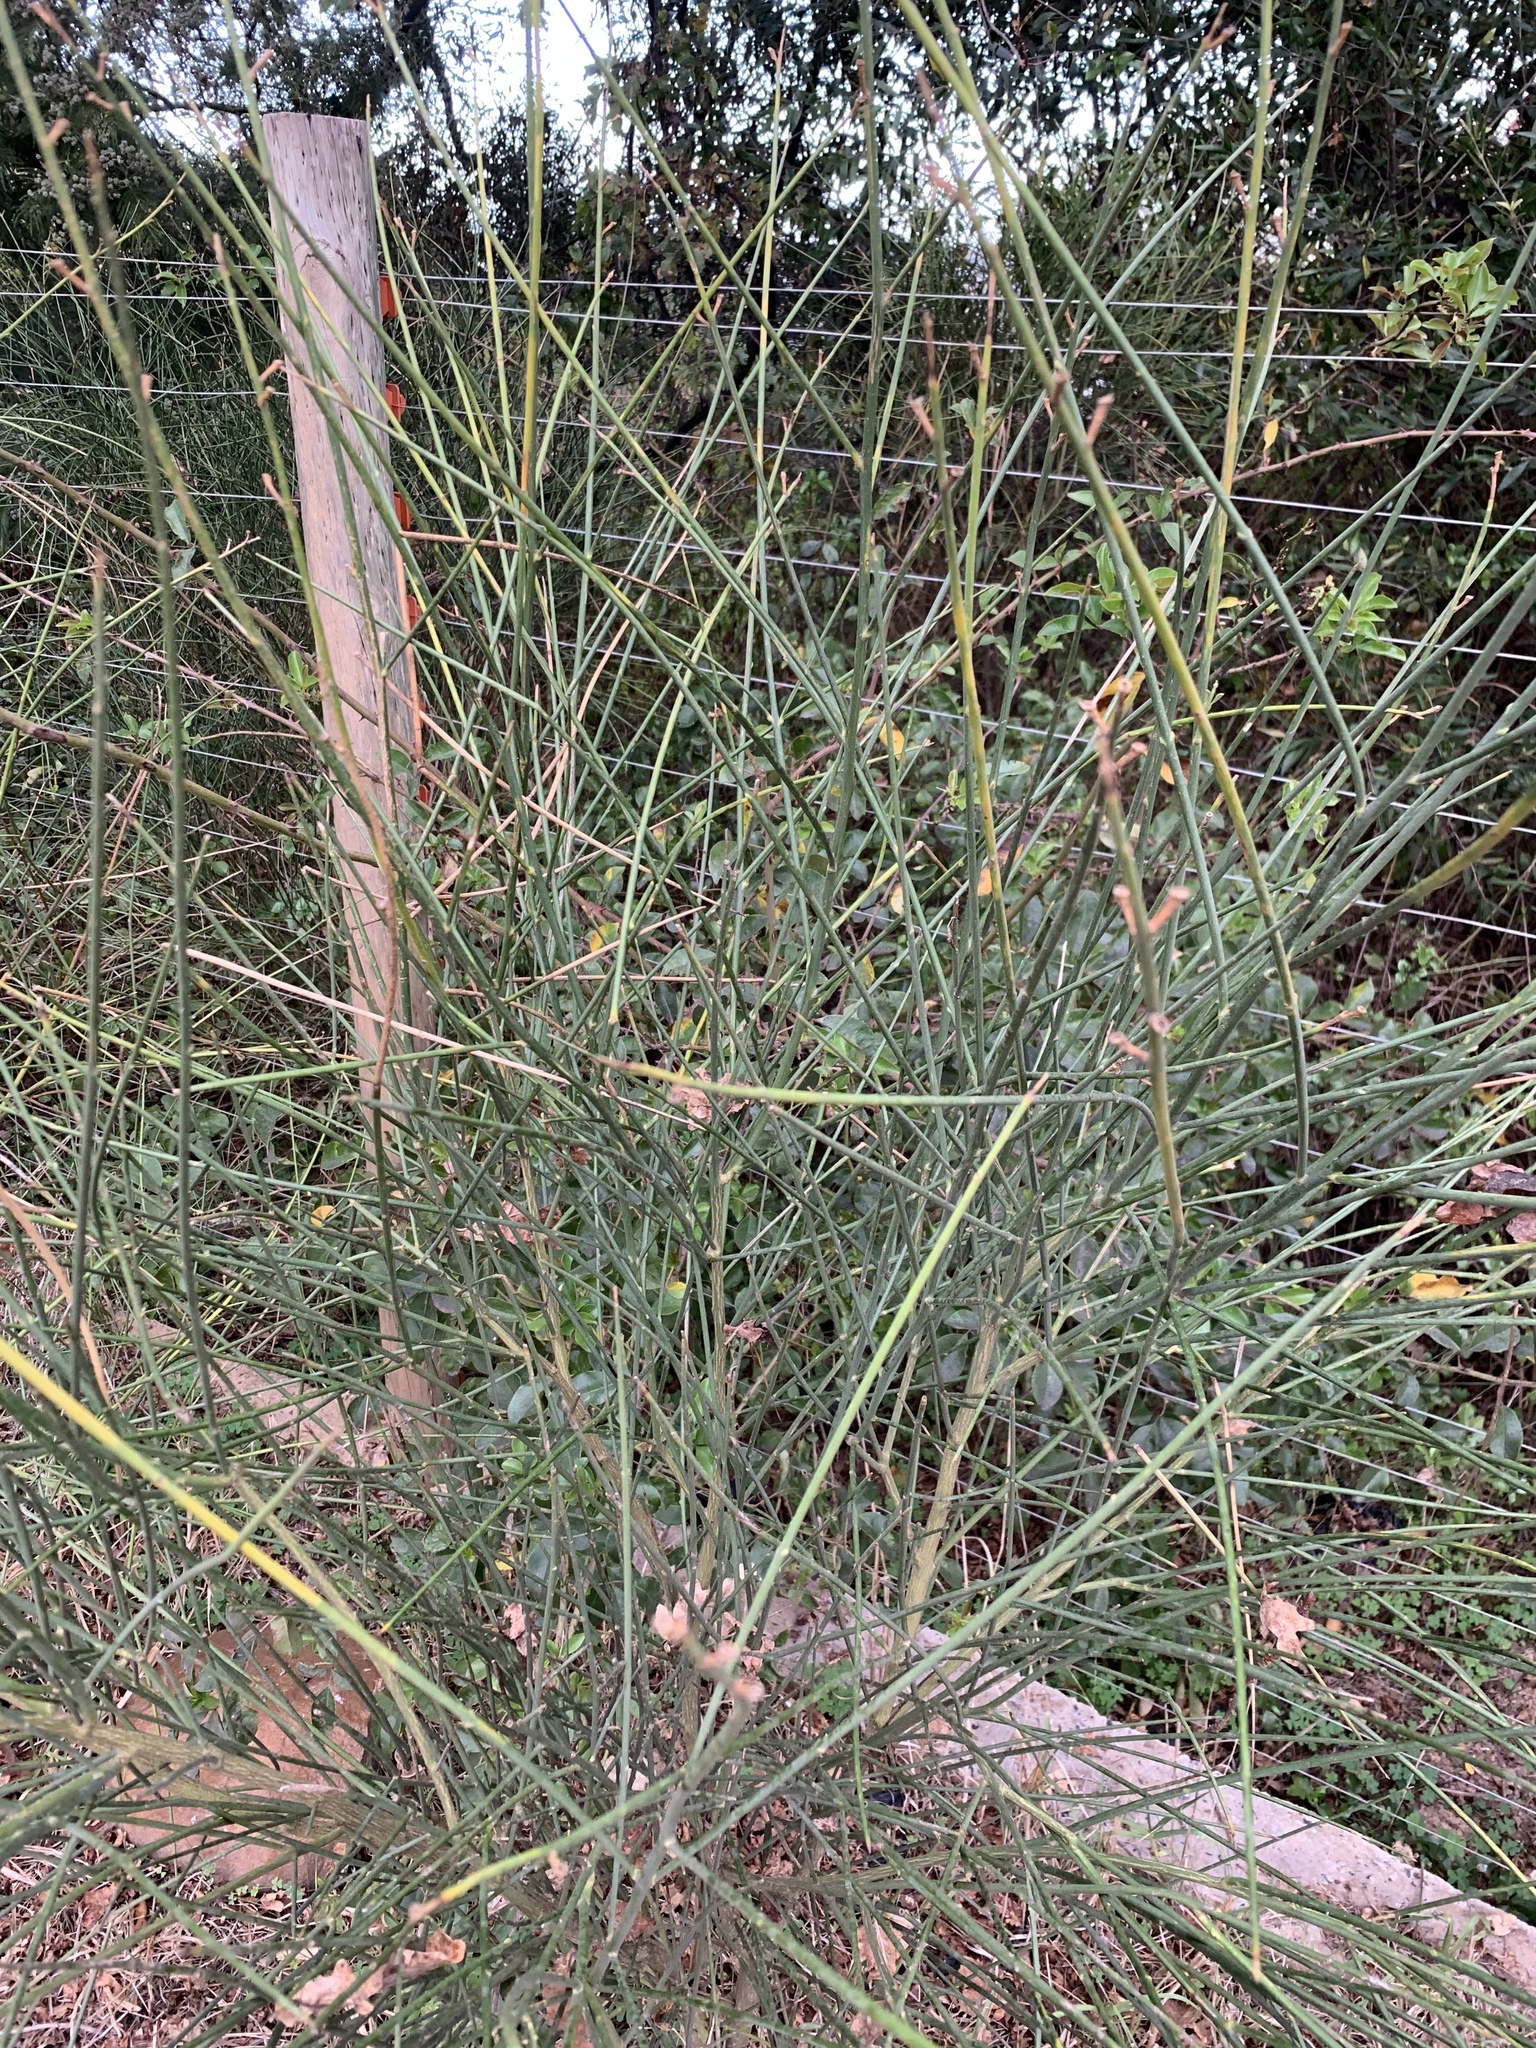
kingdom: Plantae
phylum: Tracheophyta
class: Magnoliopsida
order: Fabales
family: Fabaceae
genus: Spartium
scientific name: Spartium junceum
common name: Spanish broom
